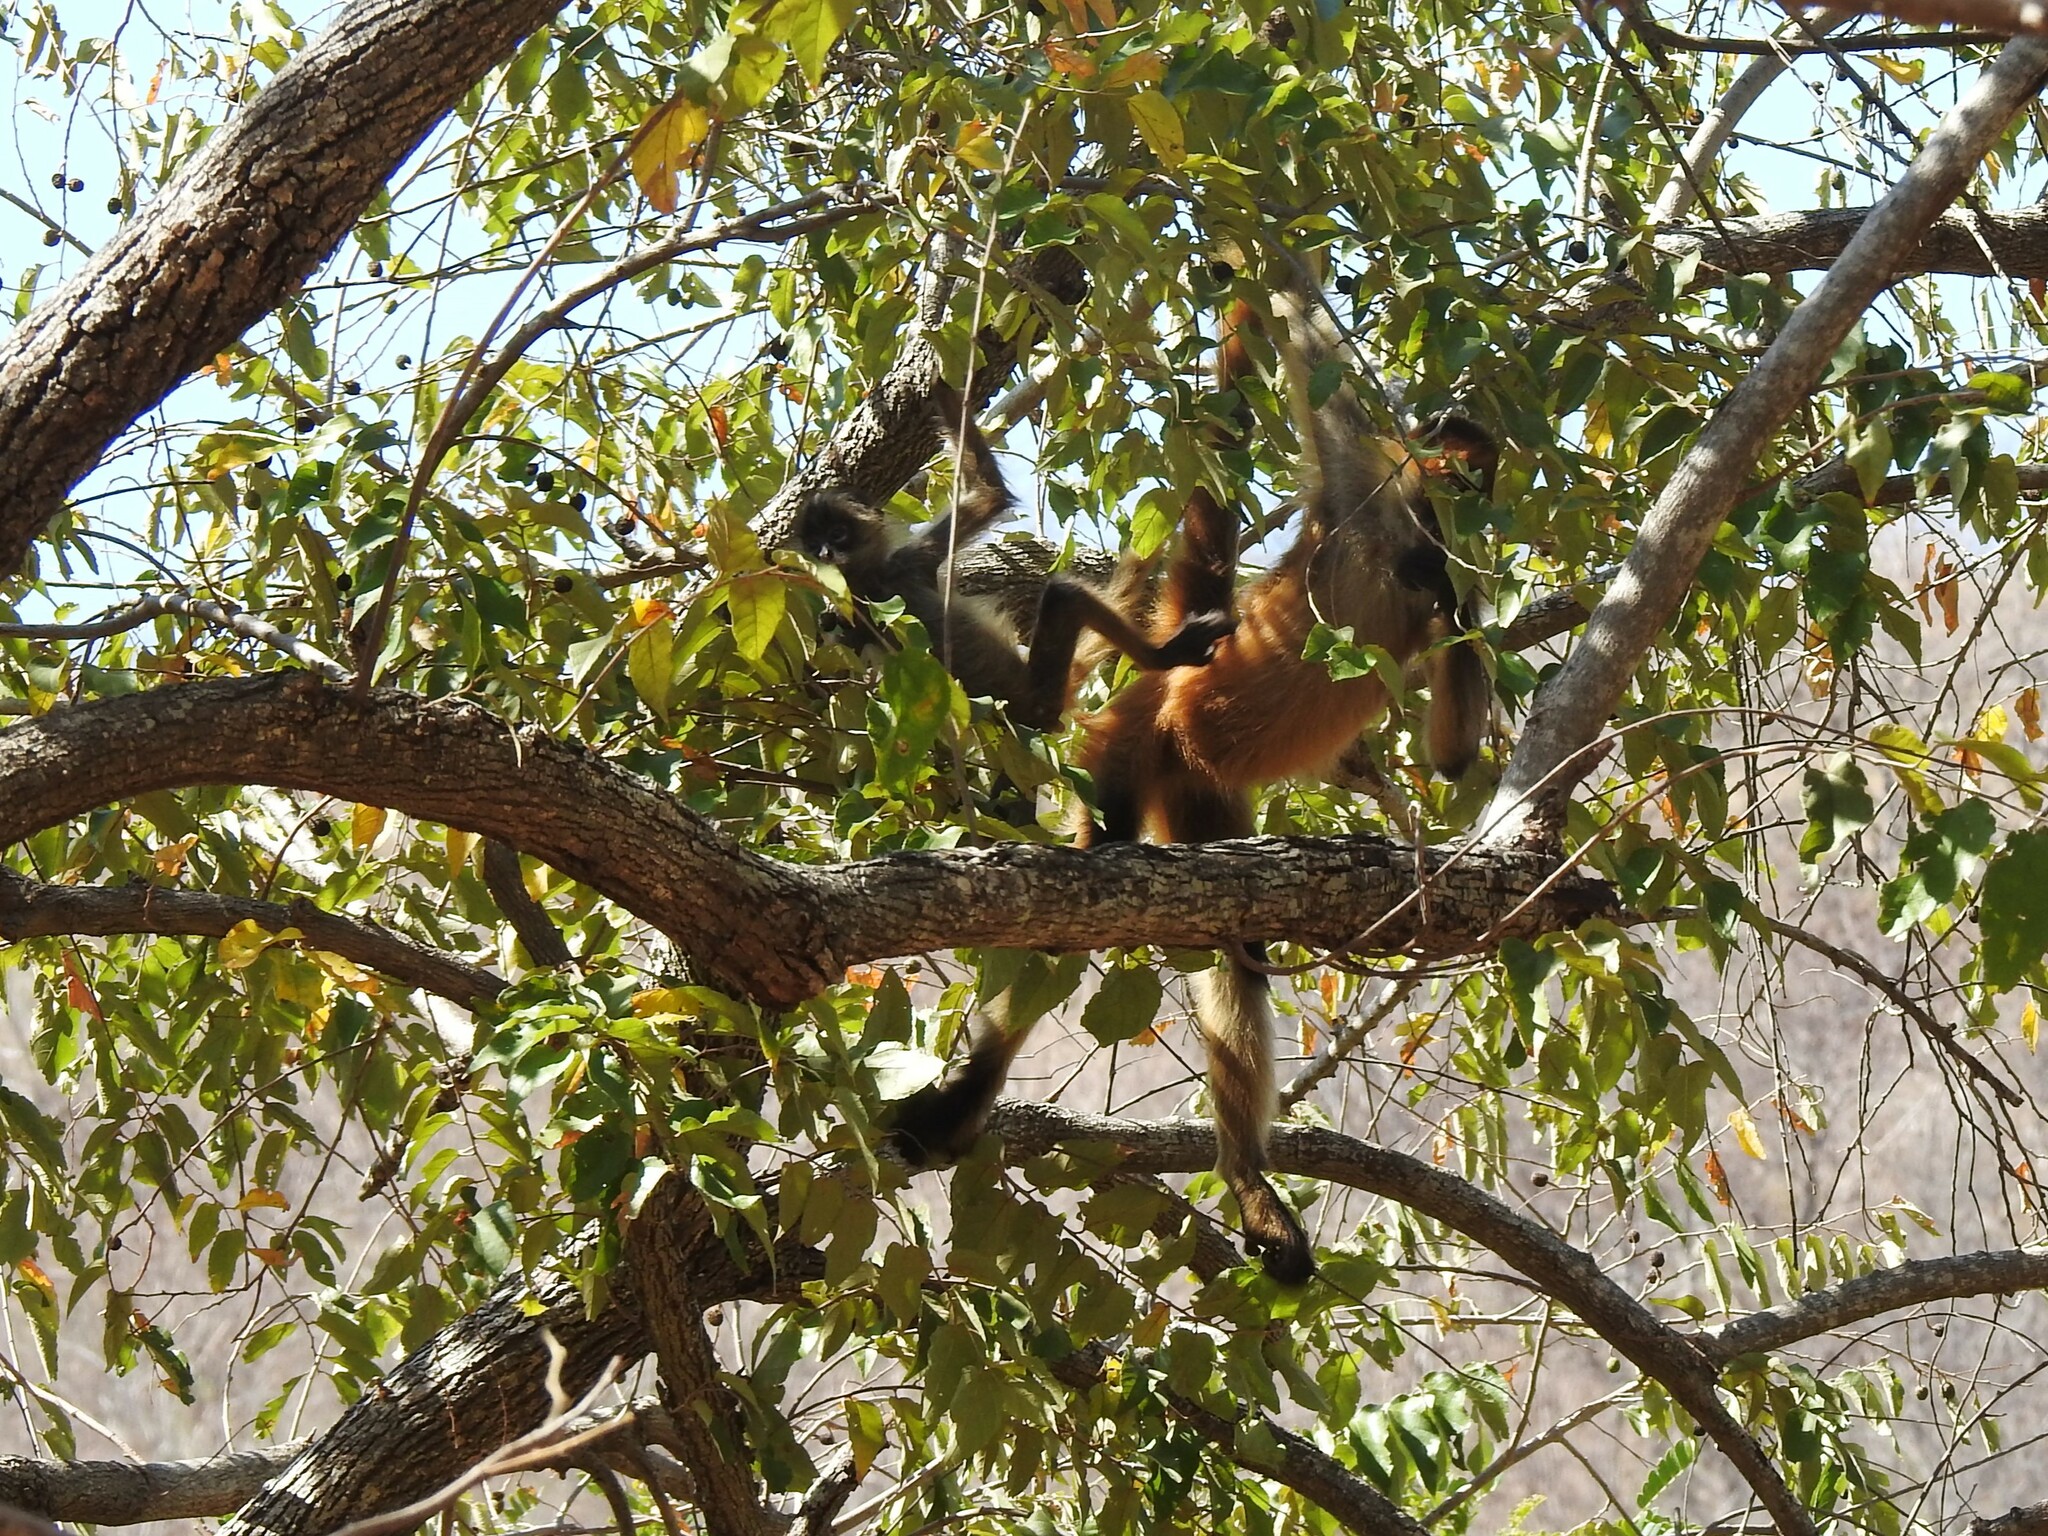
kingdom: Animalia
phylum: Chordata
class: Mammalia
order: Primates
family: Atelidae
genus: Ateles
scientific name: Ateles geoffroyi
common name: Black-handed spider monkey
